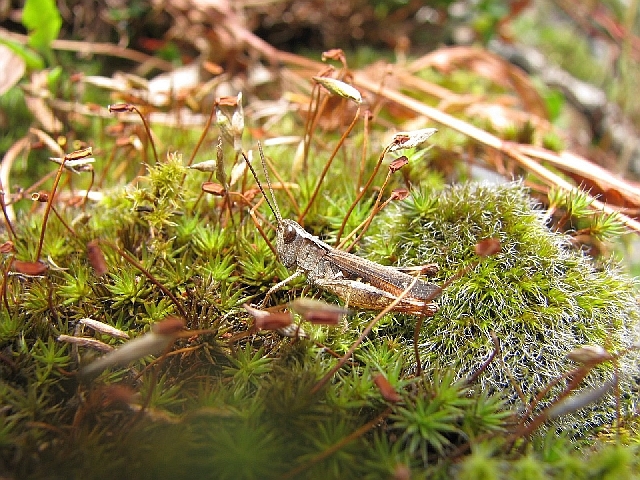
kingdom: Animalia
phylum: Arthropoda
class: Insecta
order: Orthoptera
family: Acrididae
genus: Chorthippus
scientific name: Chorthippus vagans
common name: Heath grasshopper
